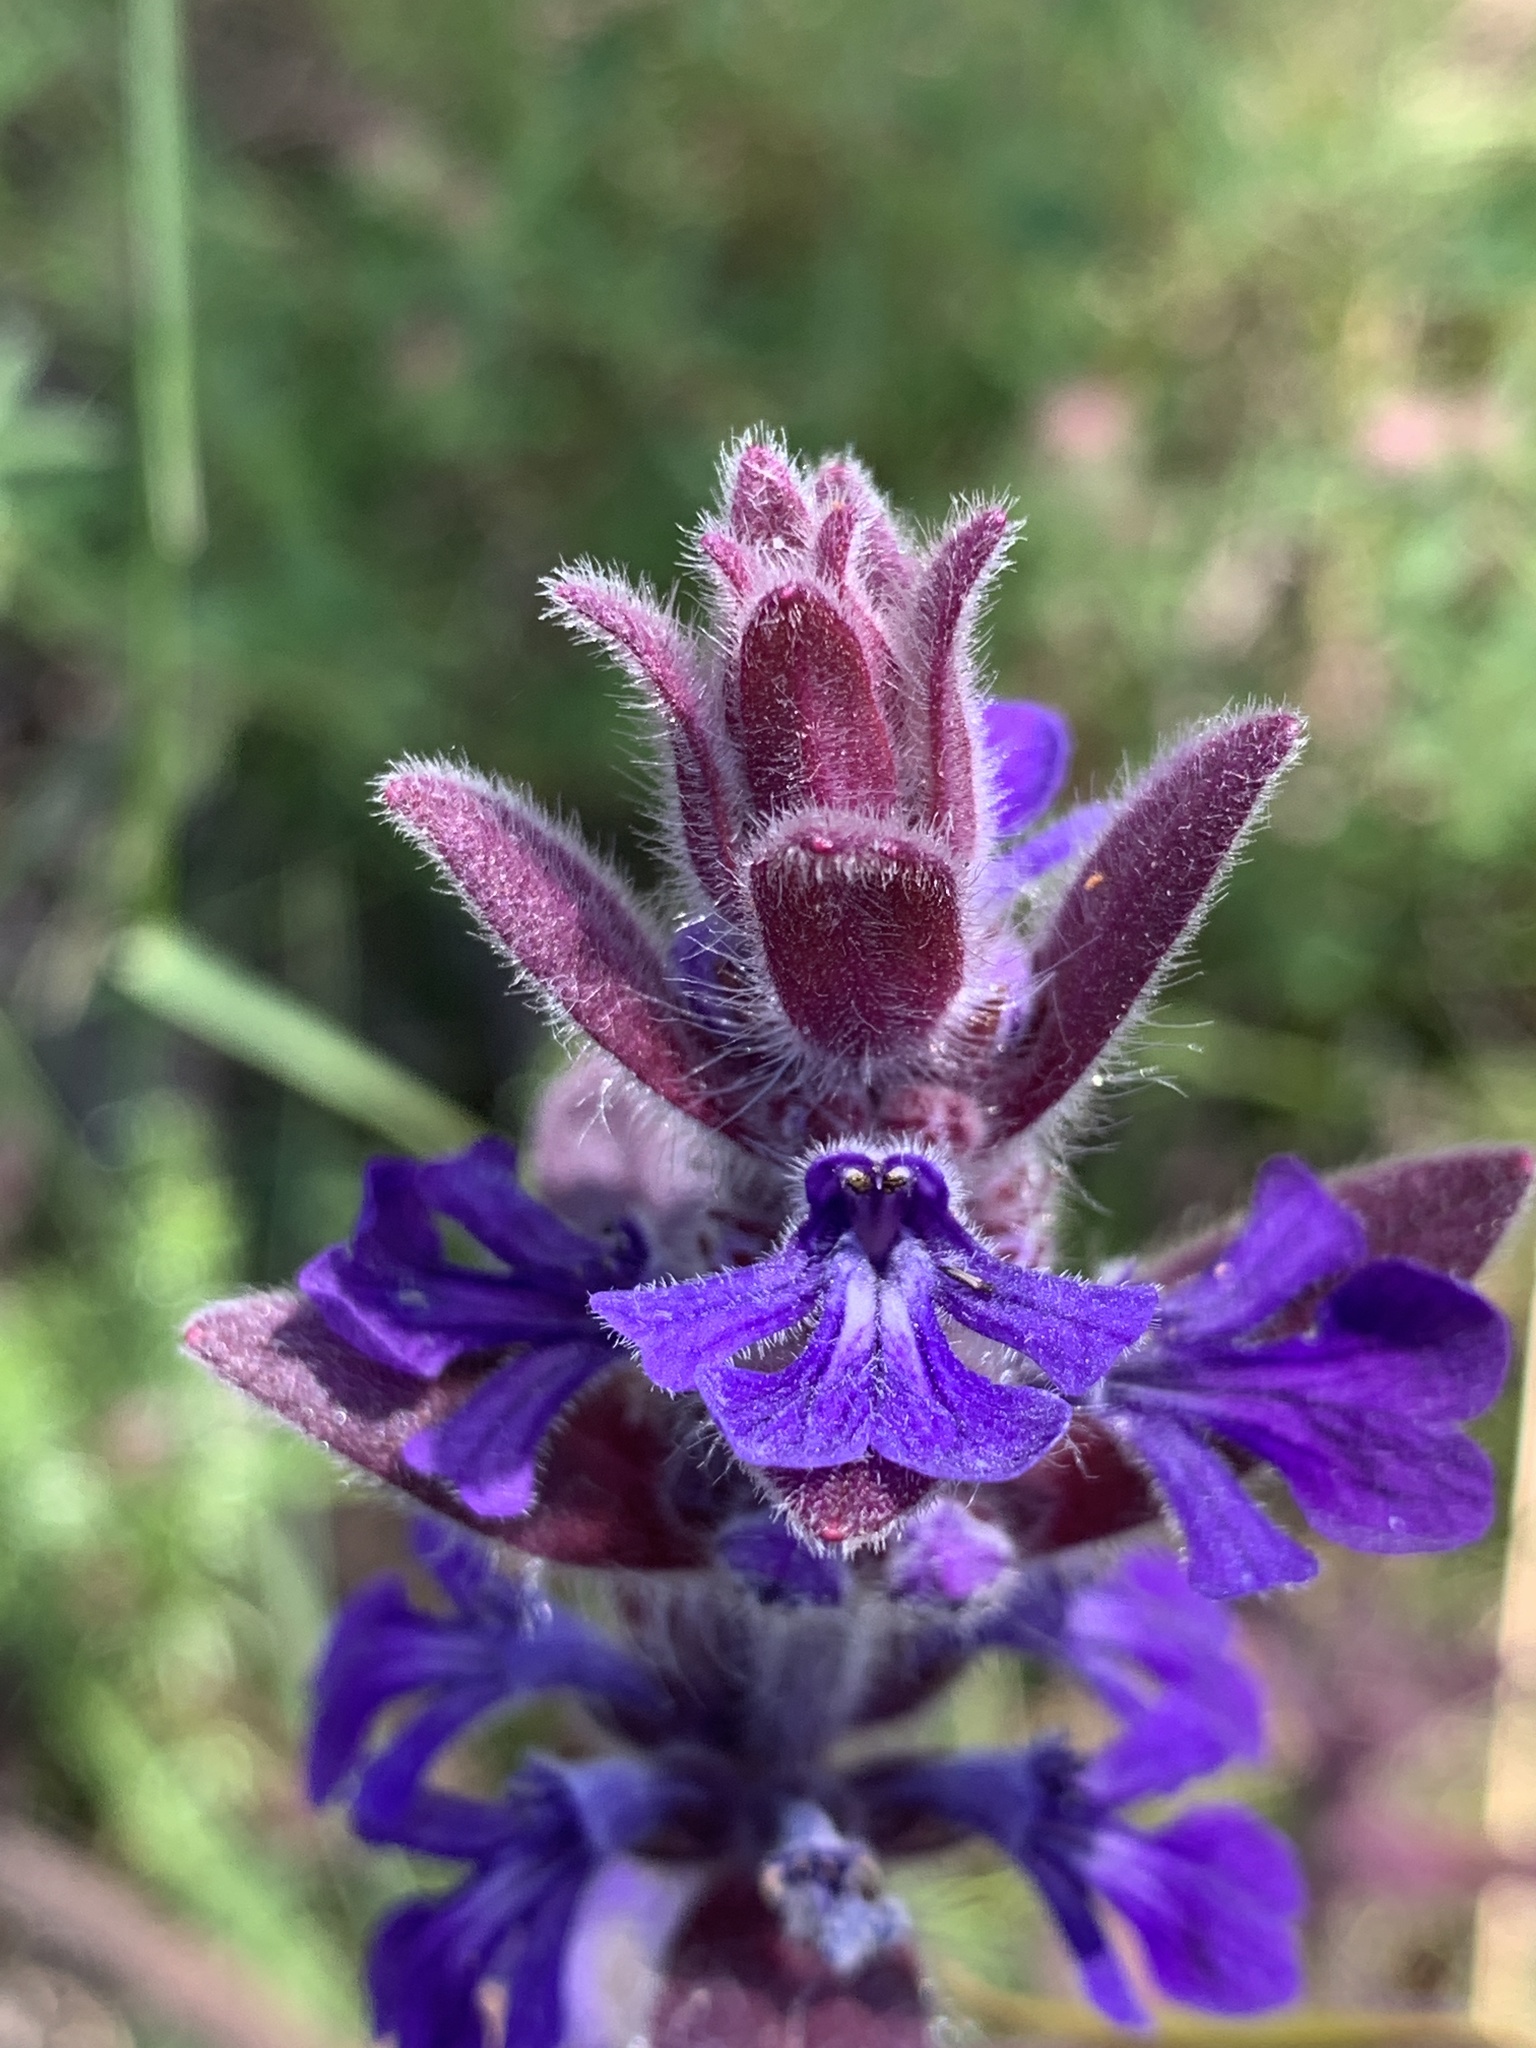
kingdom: Plantae
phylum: Tracheophyta
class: Magnoliopsida
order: Lamiales
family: Lamiaceae
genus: Ajuga
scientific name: Ajuga australis
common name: Australian bugle
